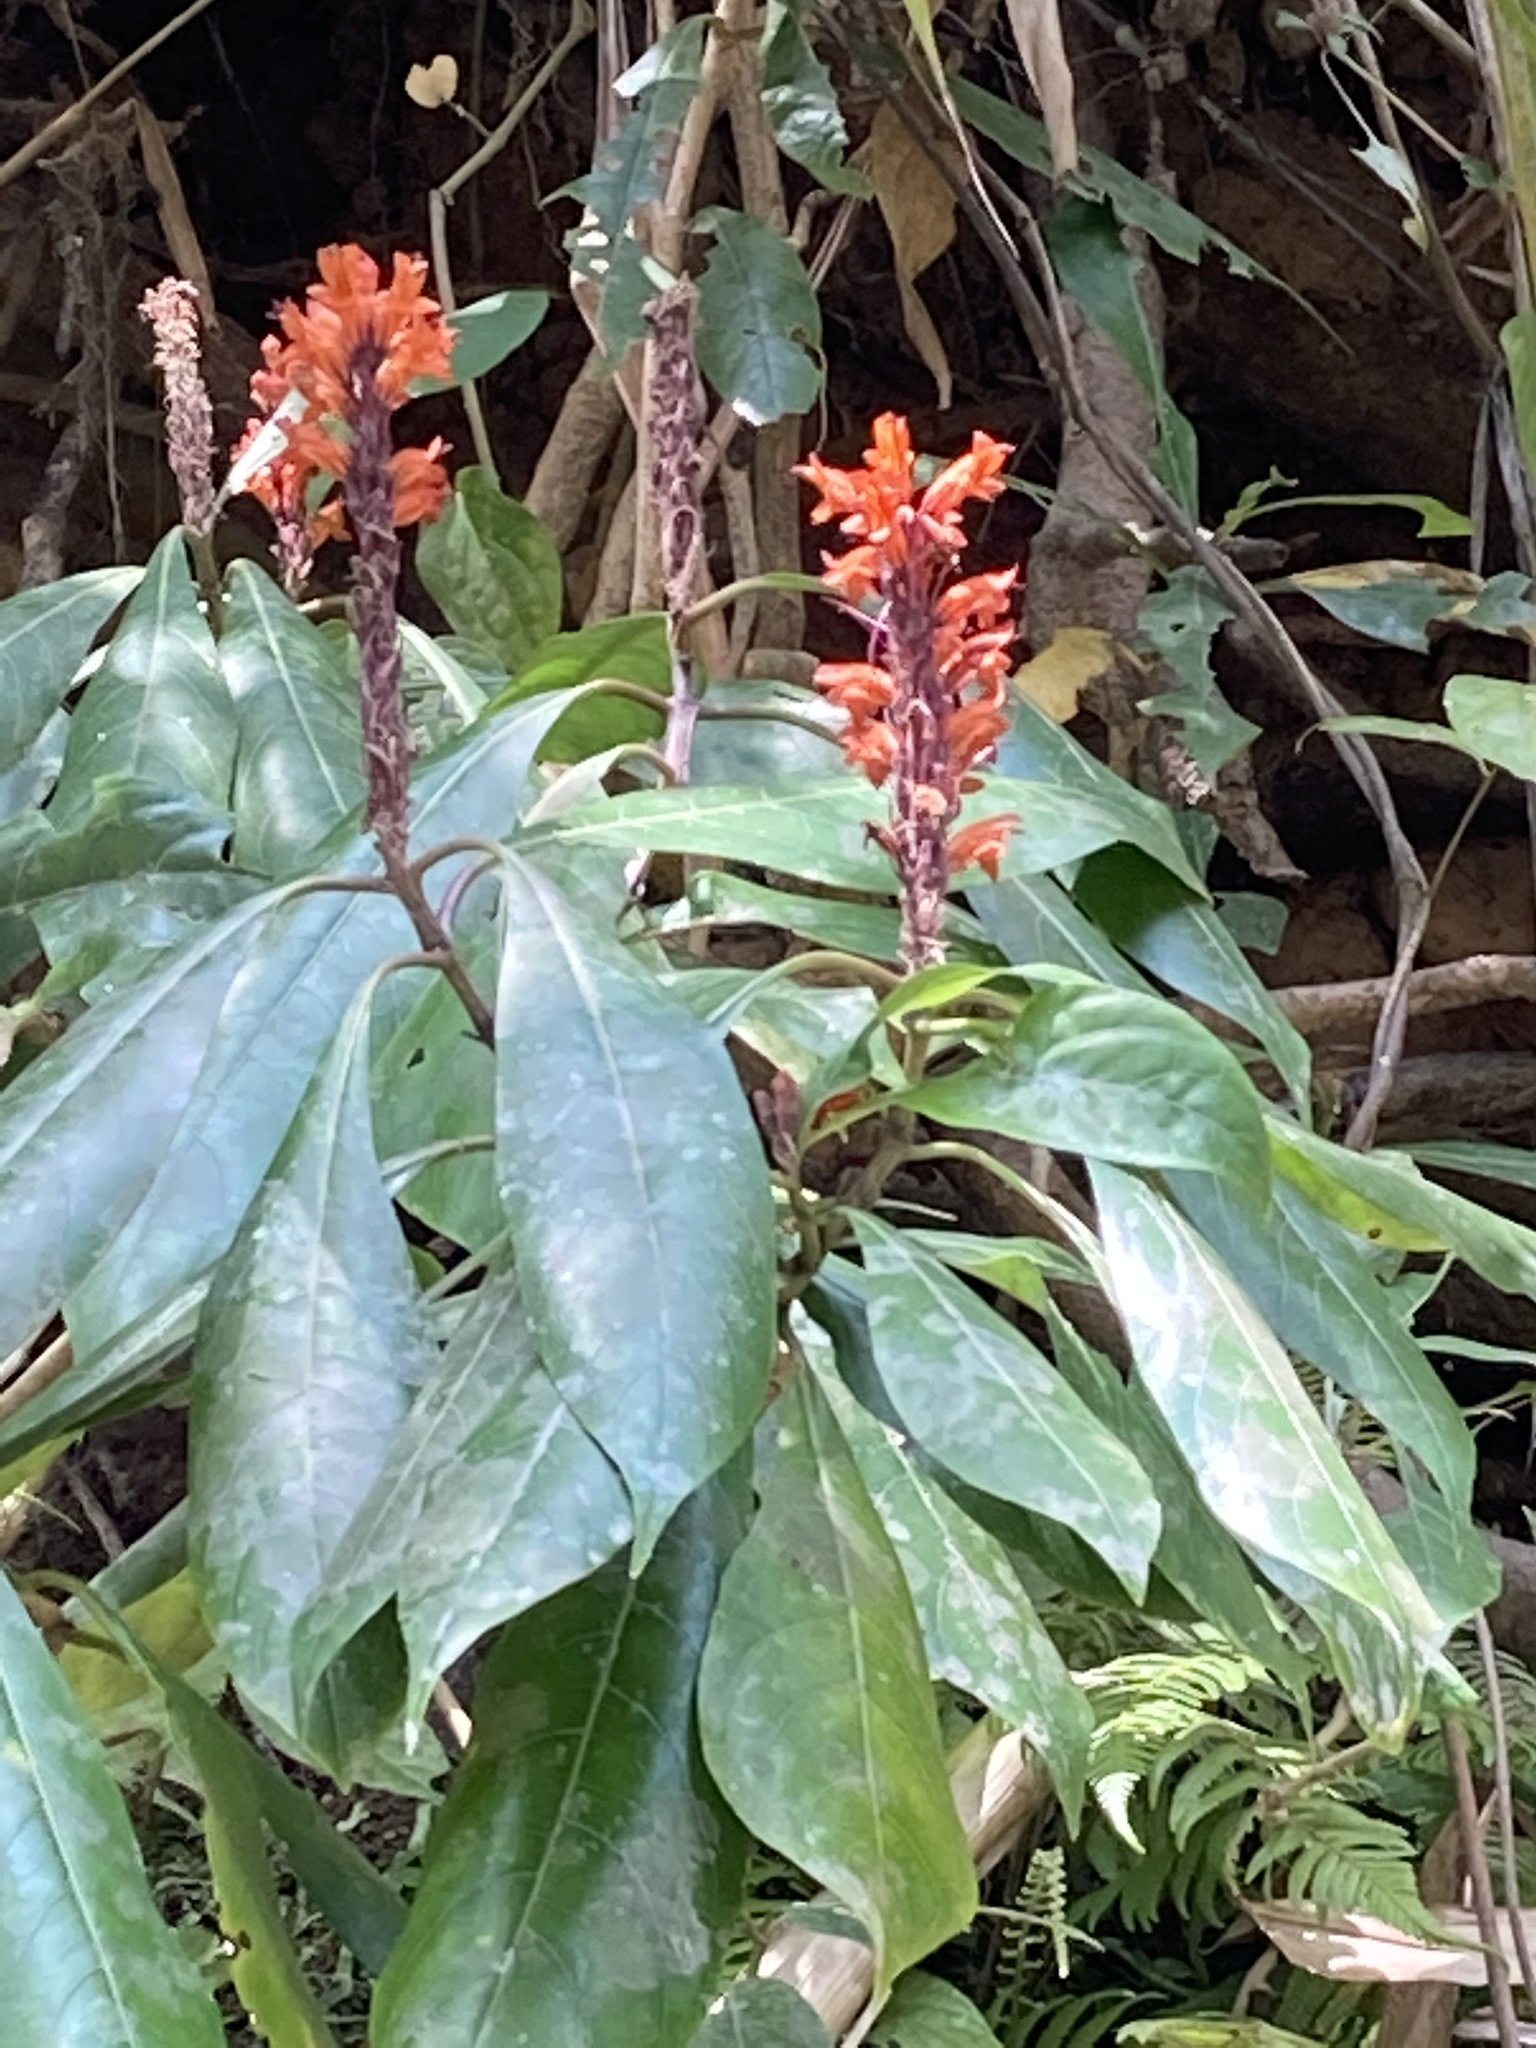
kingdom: Plantae
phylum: Tracheophyta
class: Magnoliopsida
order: Lamiales
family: Acanthaceae
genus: Phlogacanthus
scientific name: Phlogacanthus thyrsiformis
